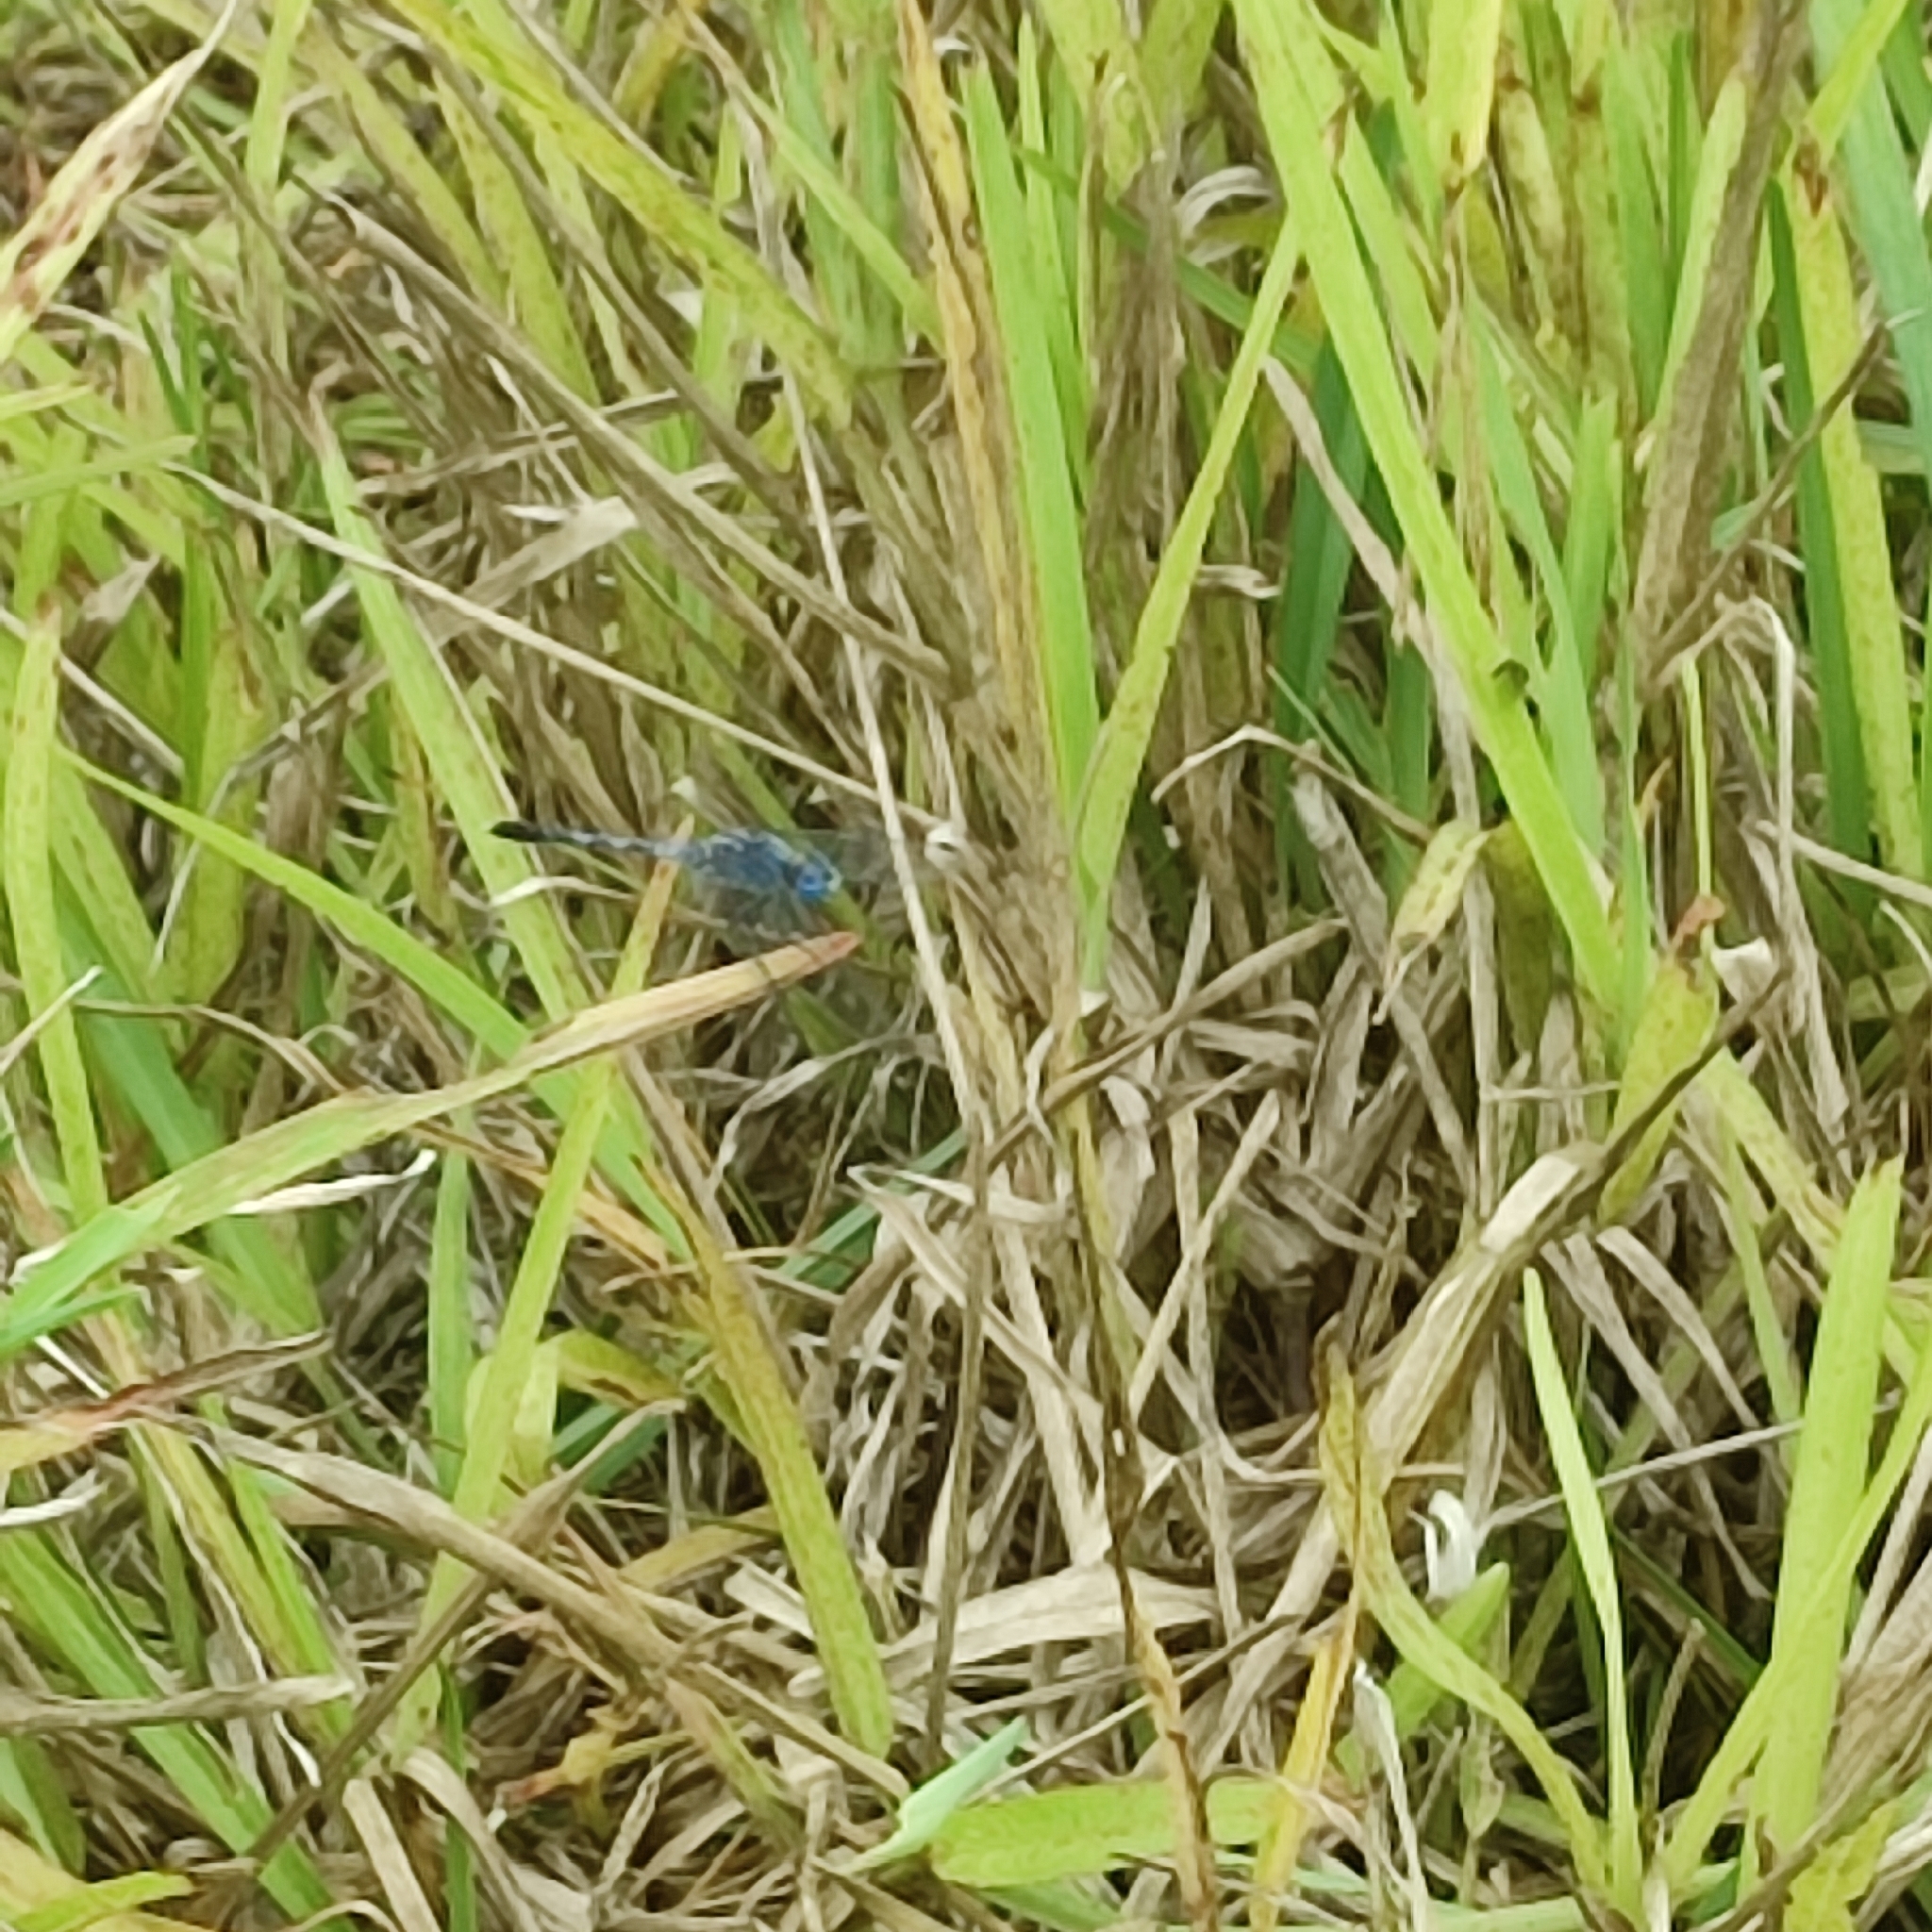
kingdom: Animalia
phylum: Arthropoda
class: Insecta
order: Odonata
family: Libellulidae
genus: Diplacodes
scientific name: Diplacodes trivialis
